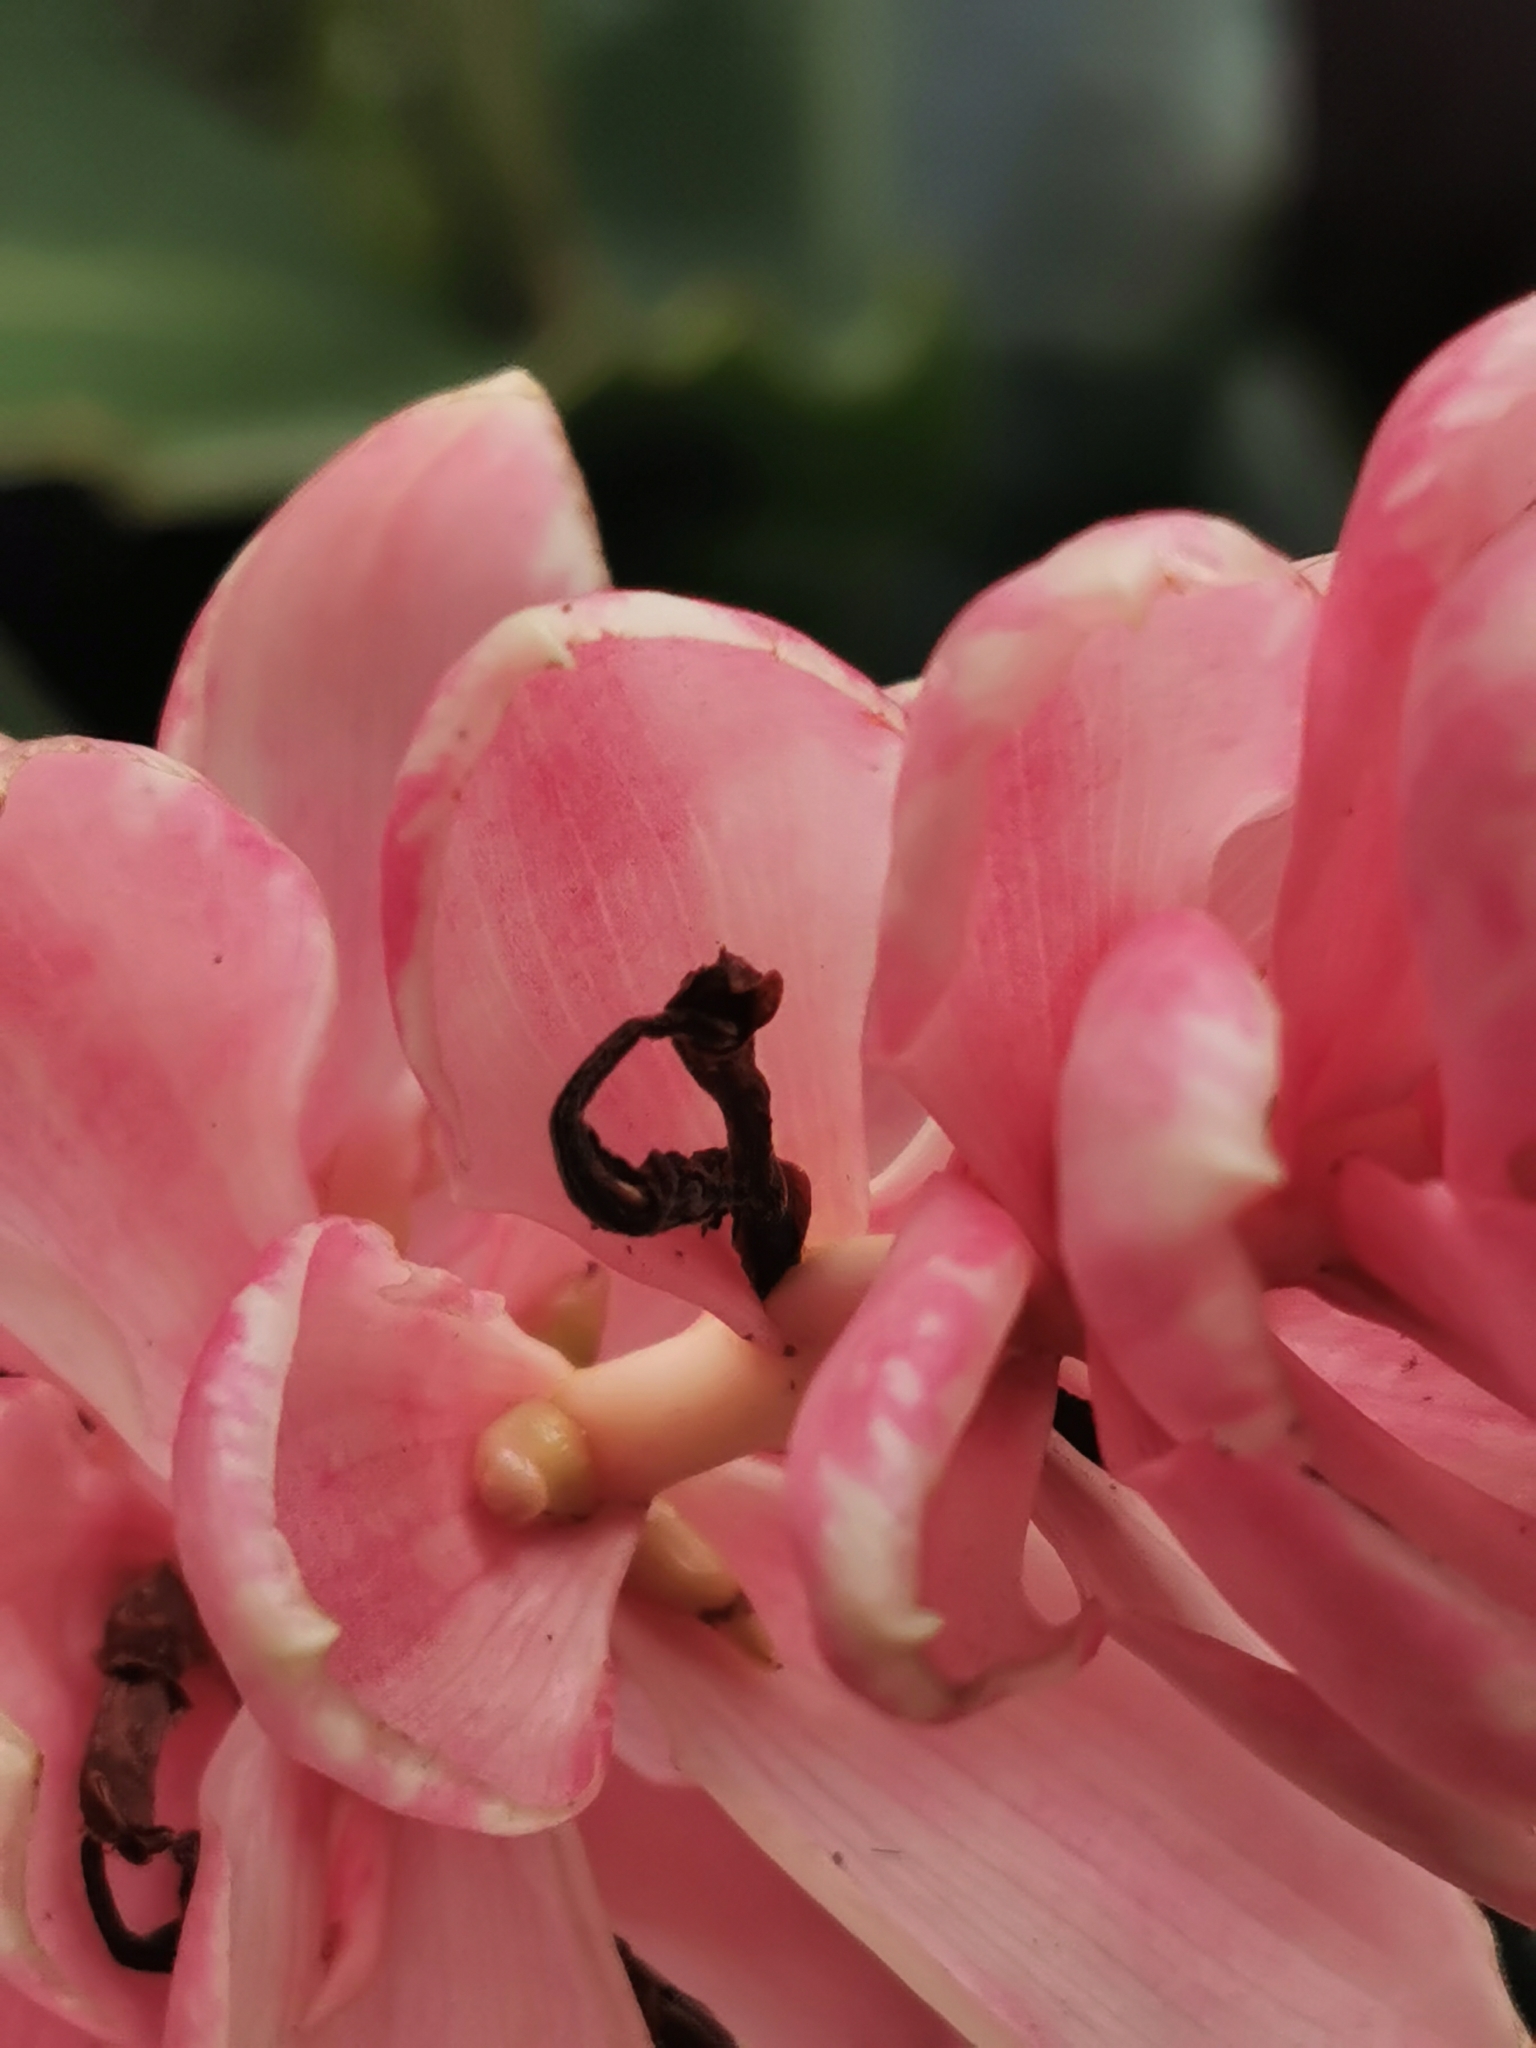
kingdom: Plantae
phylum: Tracheophyta
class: Liliopsida
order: Zingiberales
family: Zingiberaceae
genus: Alpinia
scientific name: Alpinia purpurata
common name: Red ginger
